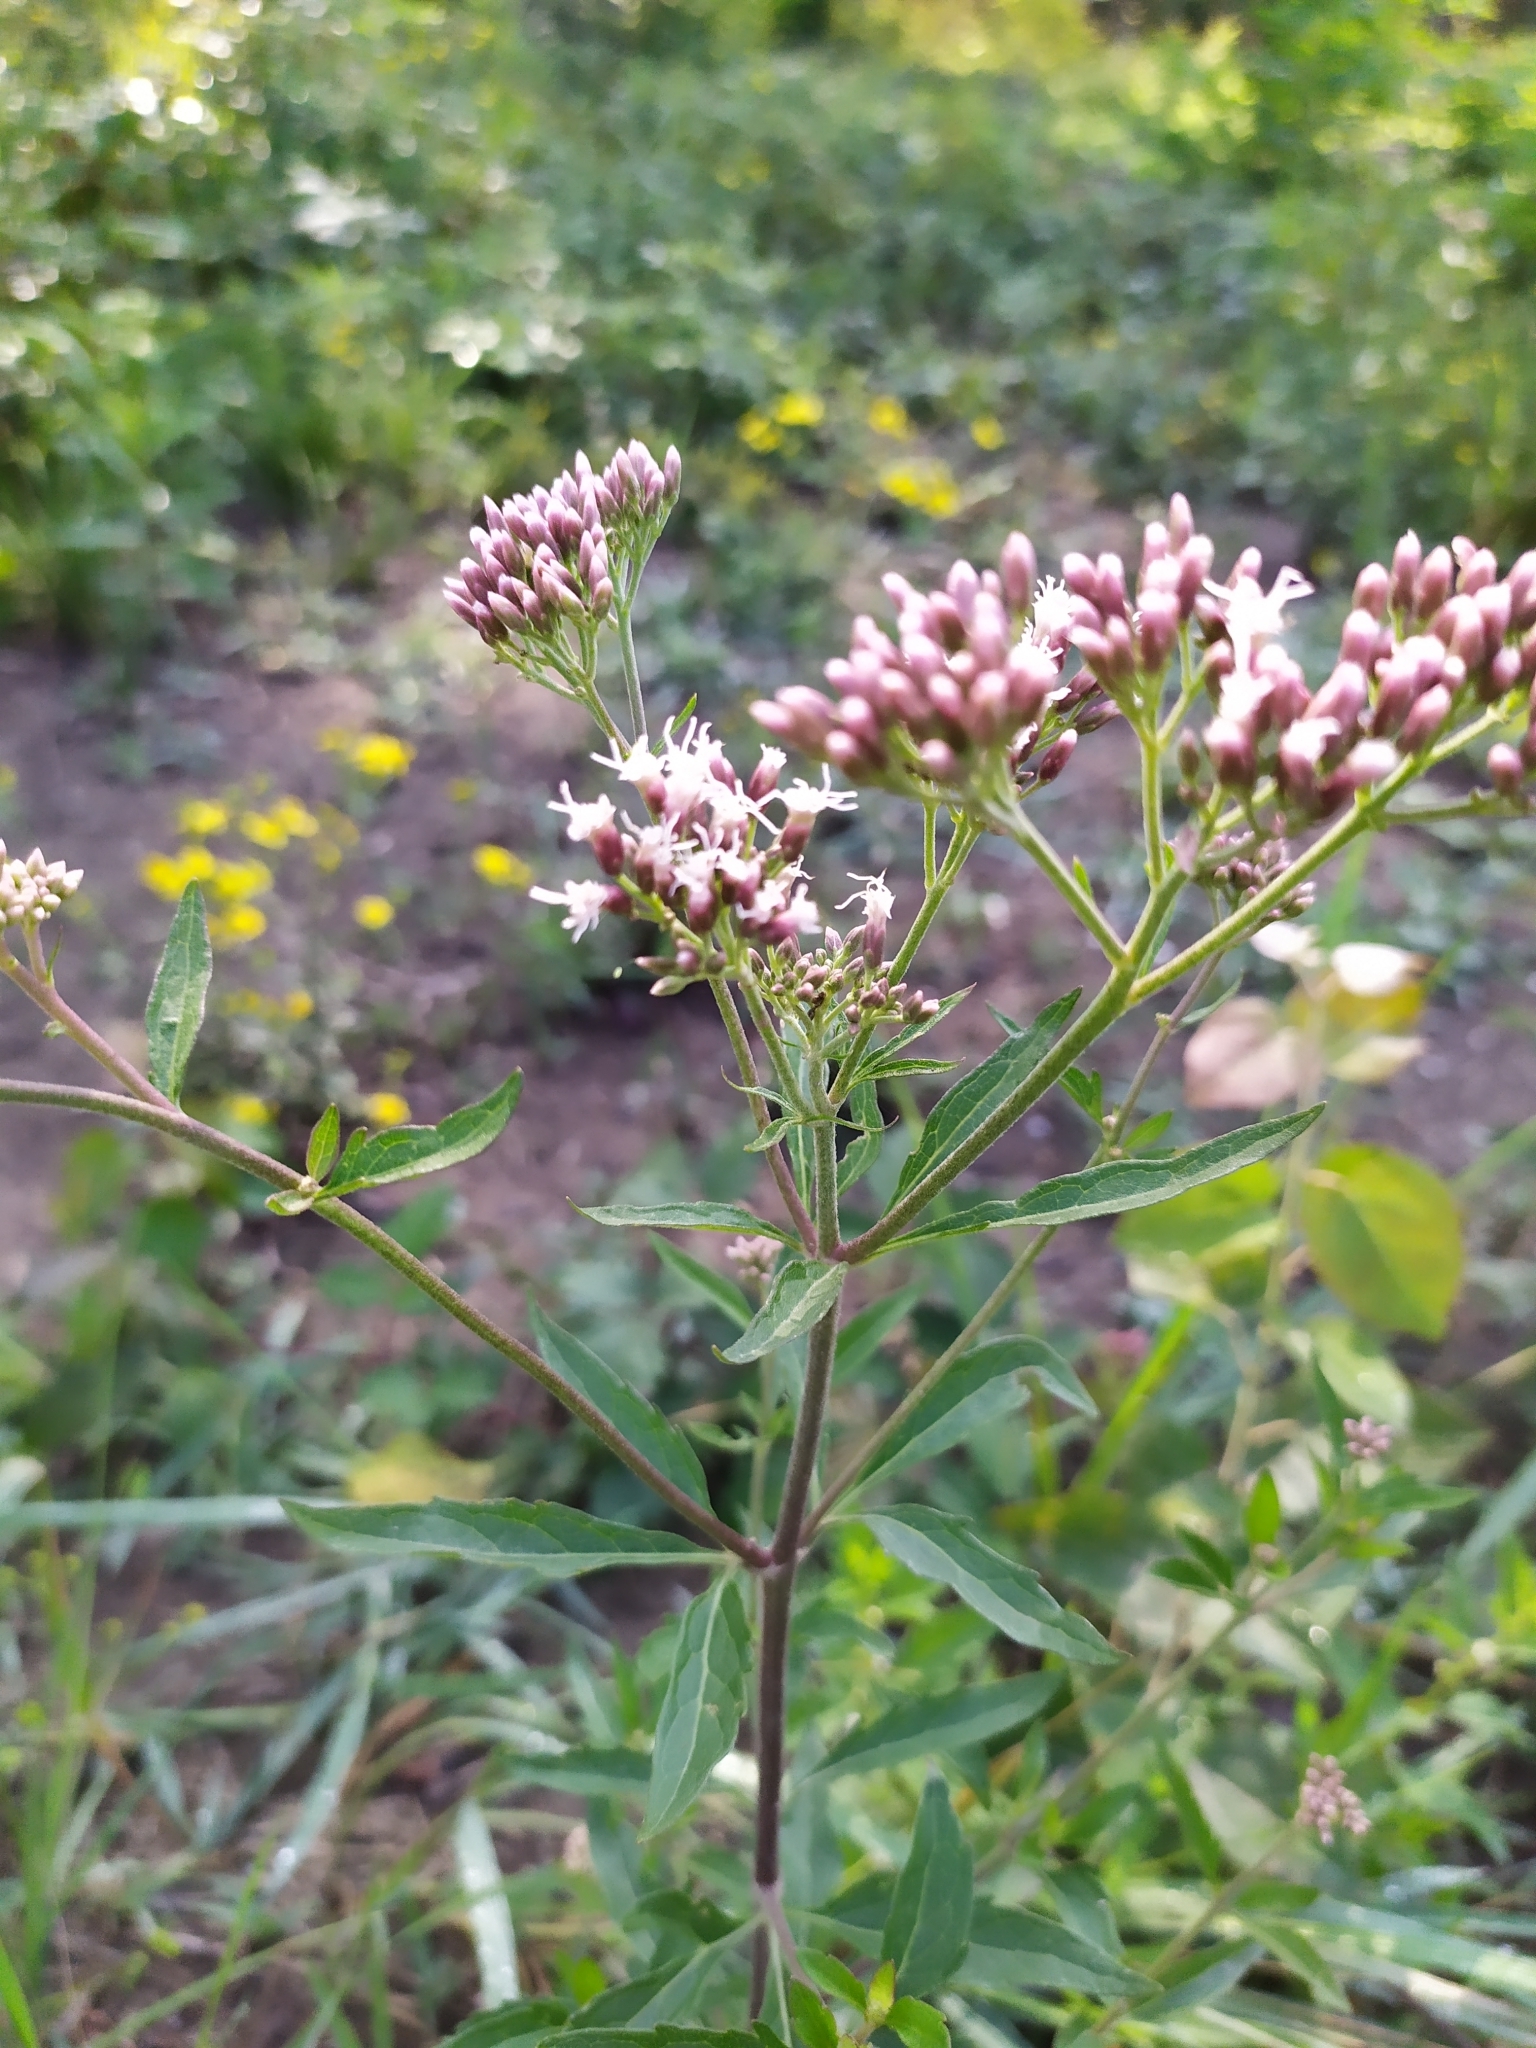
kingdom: Plantae
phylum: Tracheophyta
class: Magnoliopsida
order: Asterales
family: Asteraceae
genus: Eupatorium
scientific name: Eupatorium cannabinum
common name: Hemp-agrimony
